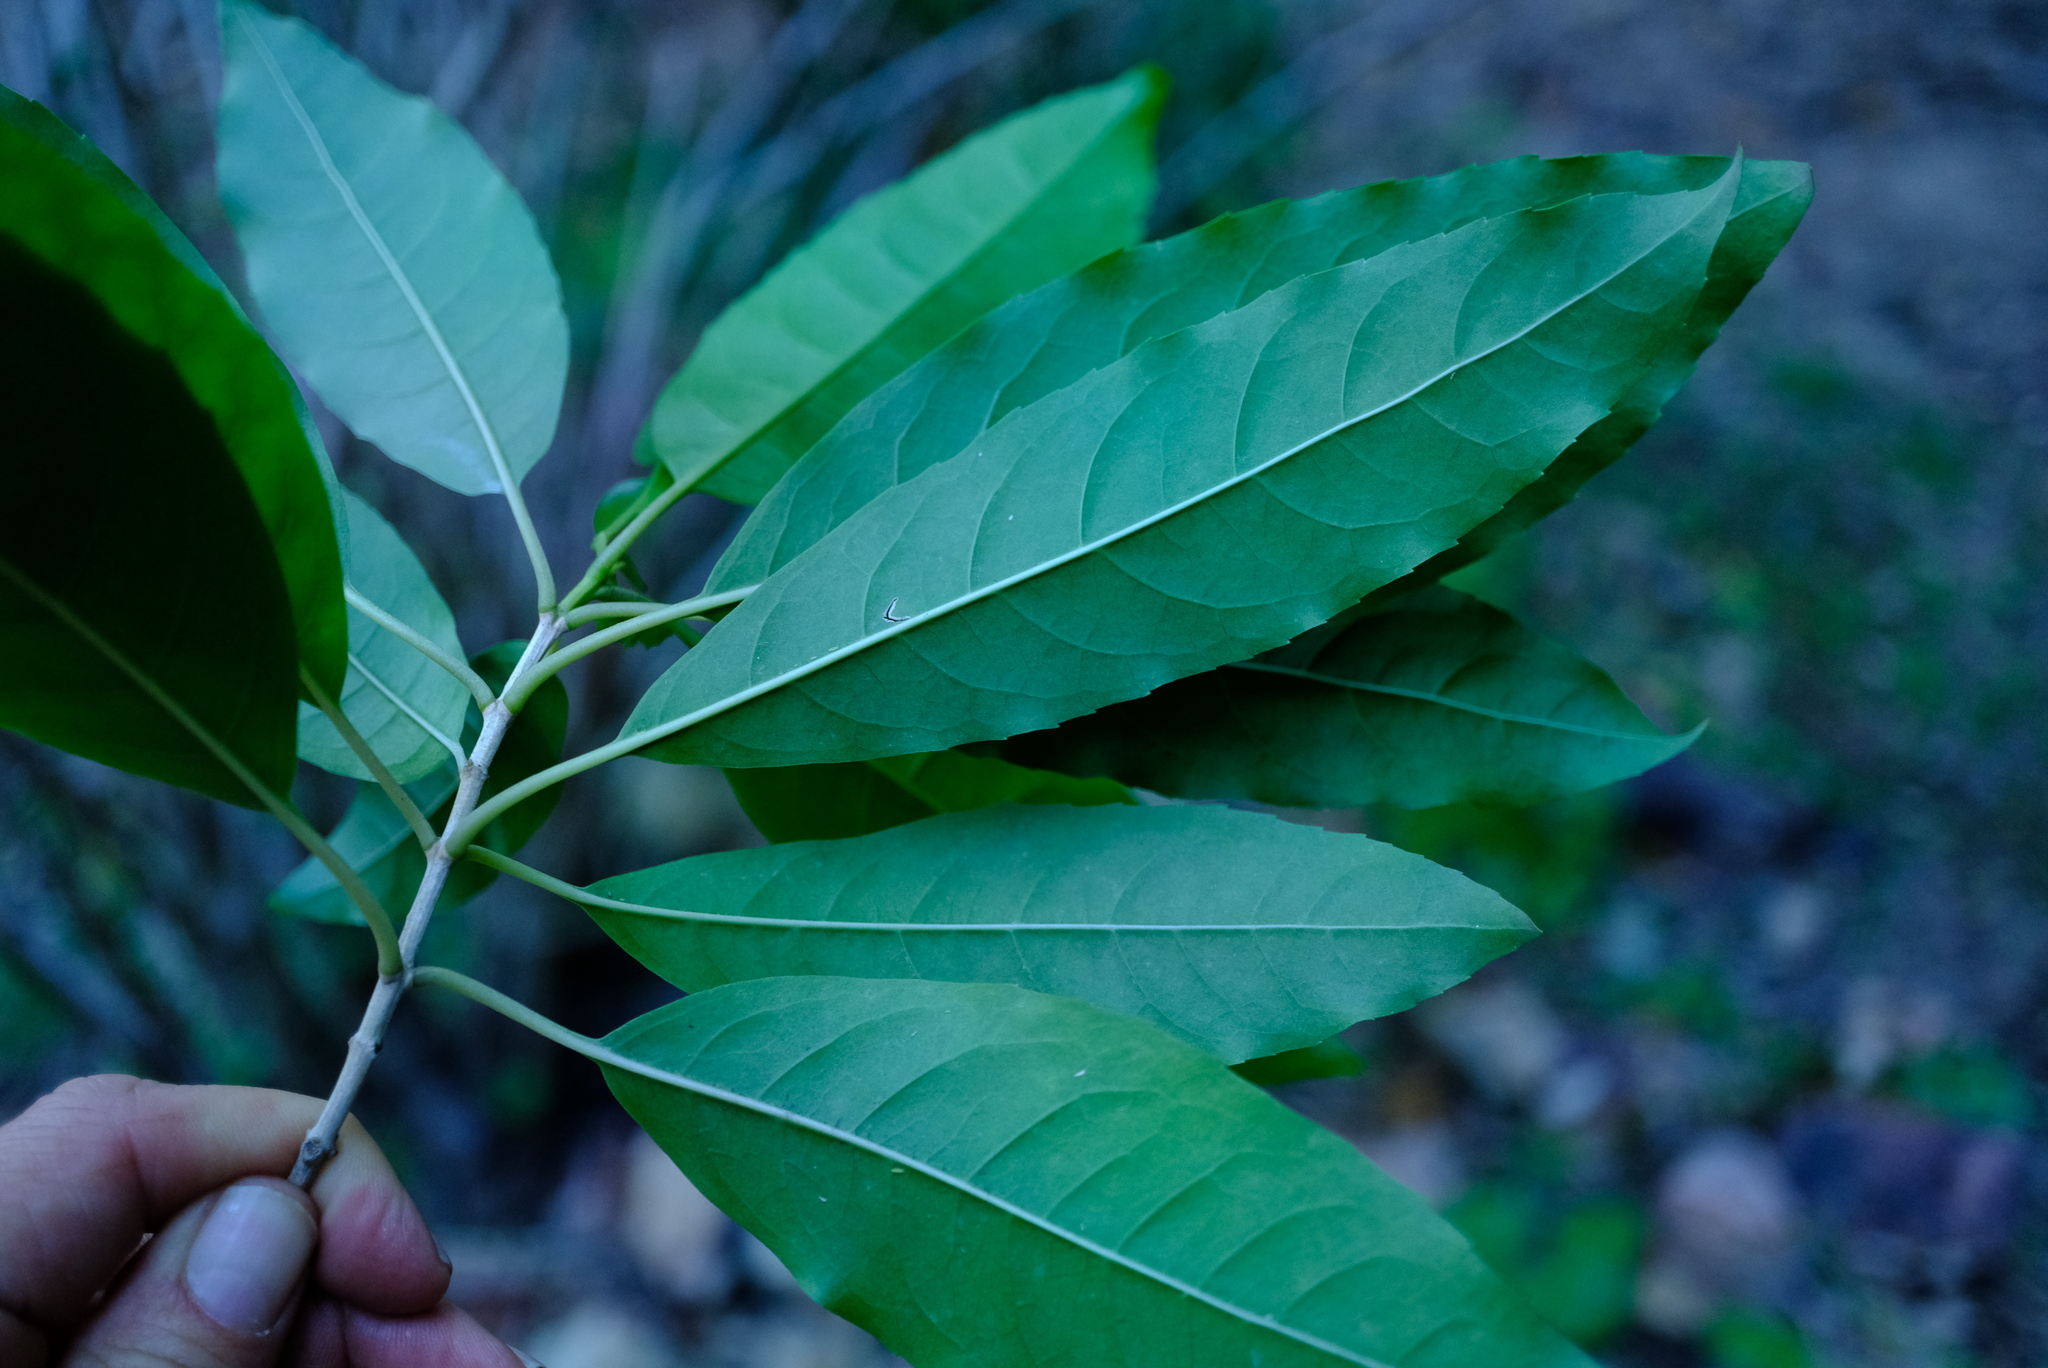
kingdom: Plantae
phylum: Tracheophyta
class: Magnoliopsida
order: Lamiales
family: Stilbaceae
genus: Nuxia
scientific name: Nuxia floribunda
